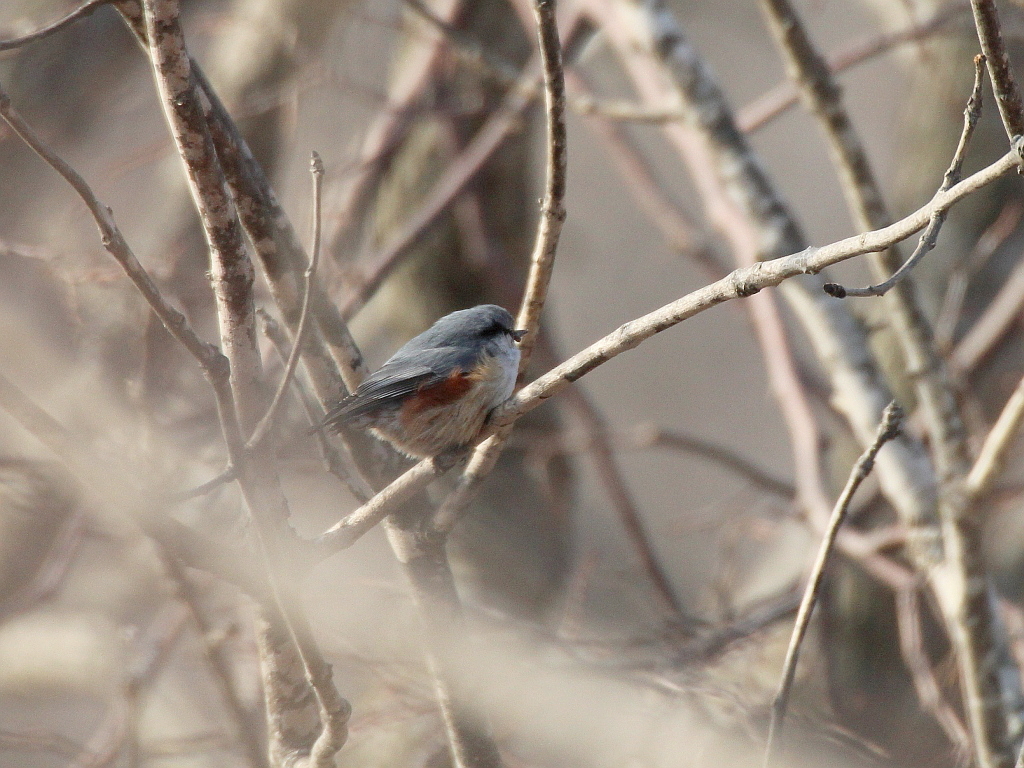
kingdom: Animalia
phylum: Chordata
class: Aves
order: Passeriformes
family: Sittidae
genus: Sitta
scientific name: Sitta europaea
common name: Eurasian nuthatch
